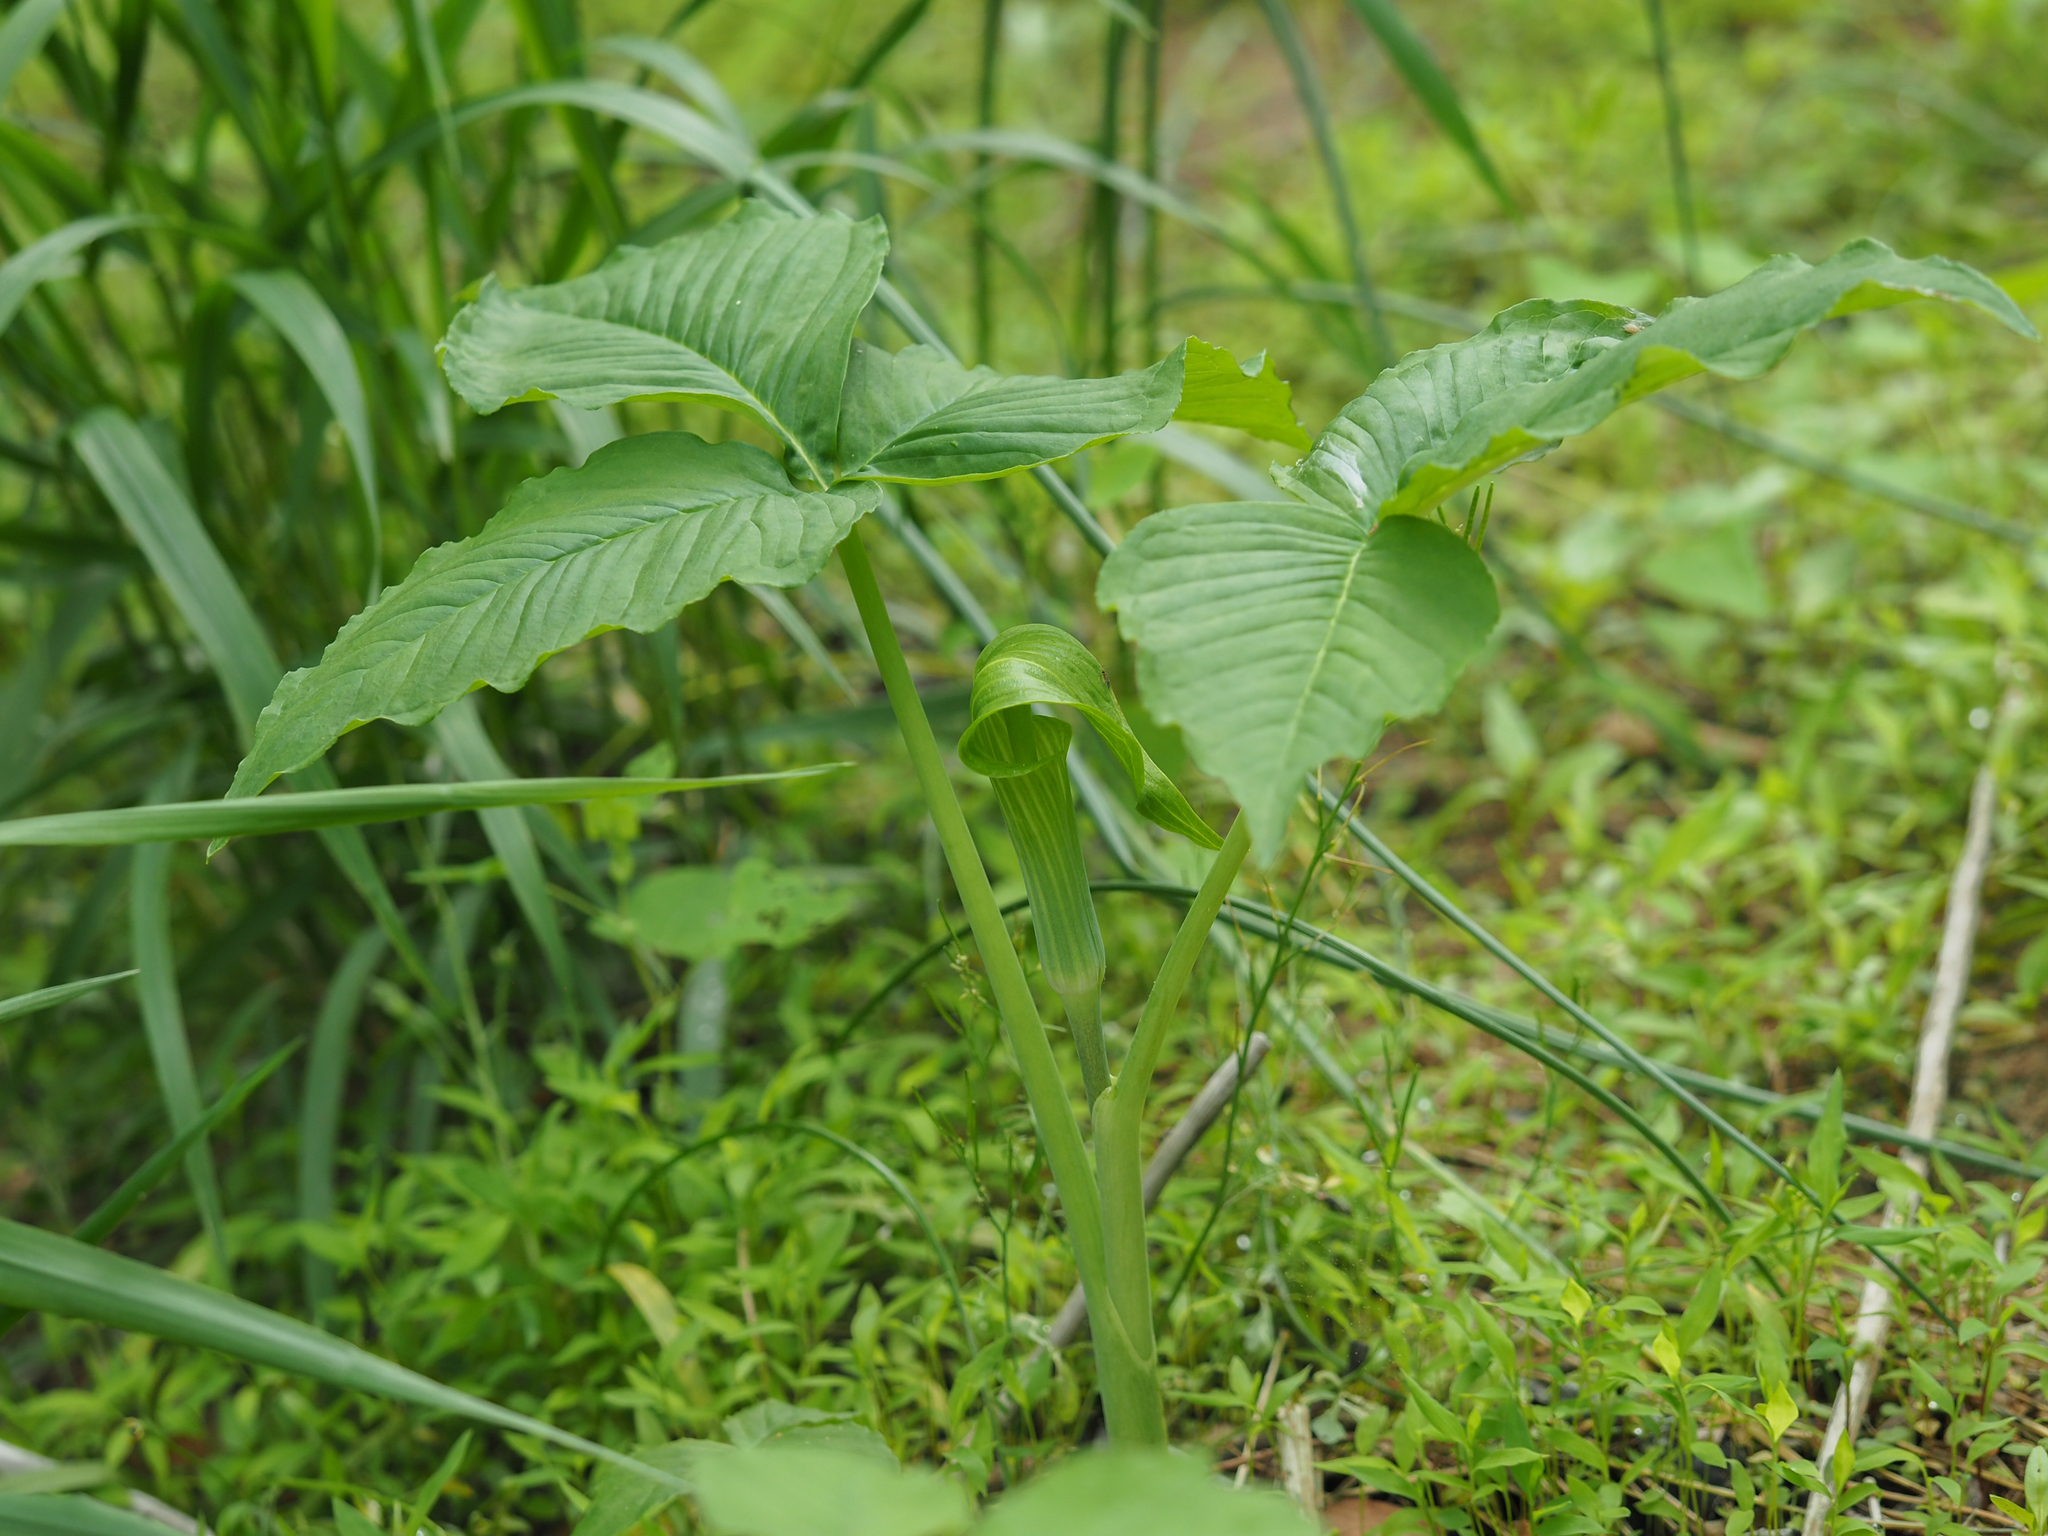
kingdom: Plantae
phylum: Tracheophyta
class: Liliopsida
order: Alismatales
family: Araceae
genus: Arisaema
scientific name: Arisaema triphyllum
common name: Jack-in-the-pulpit
